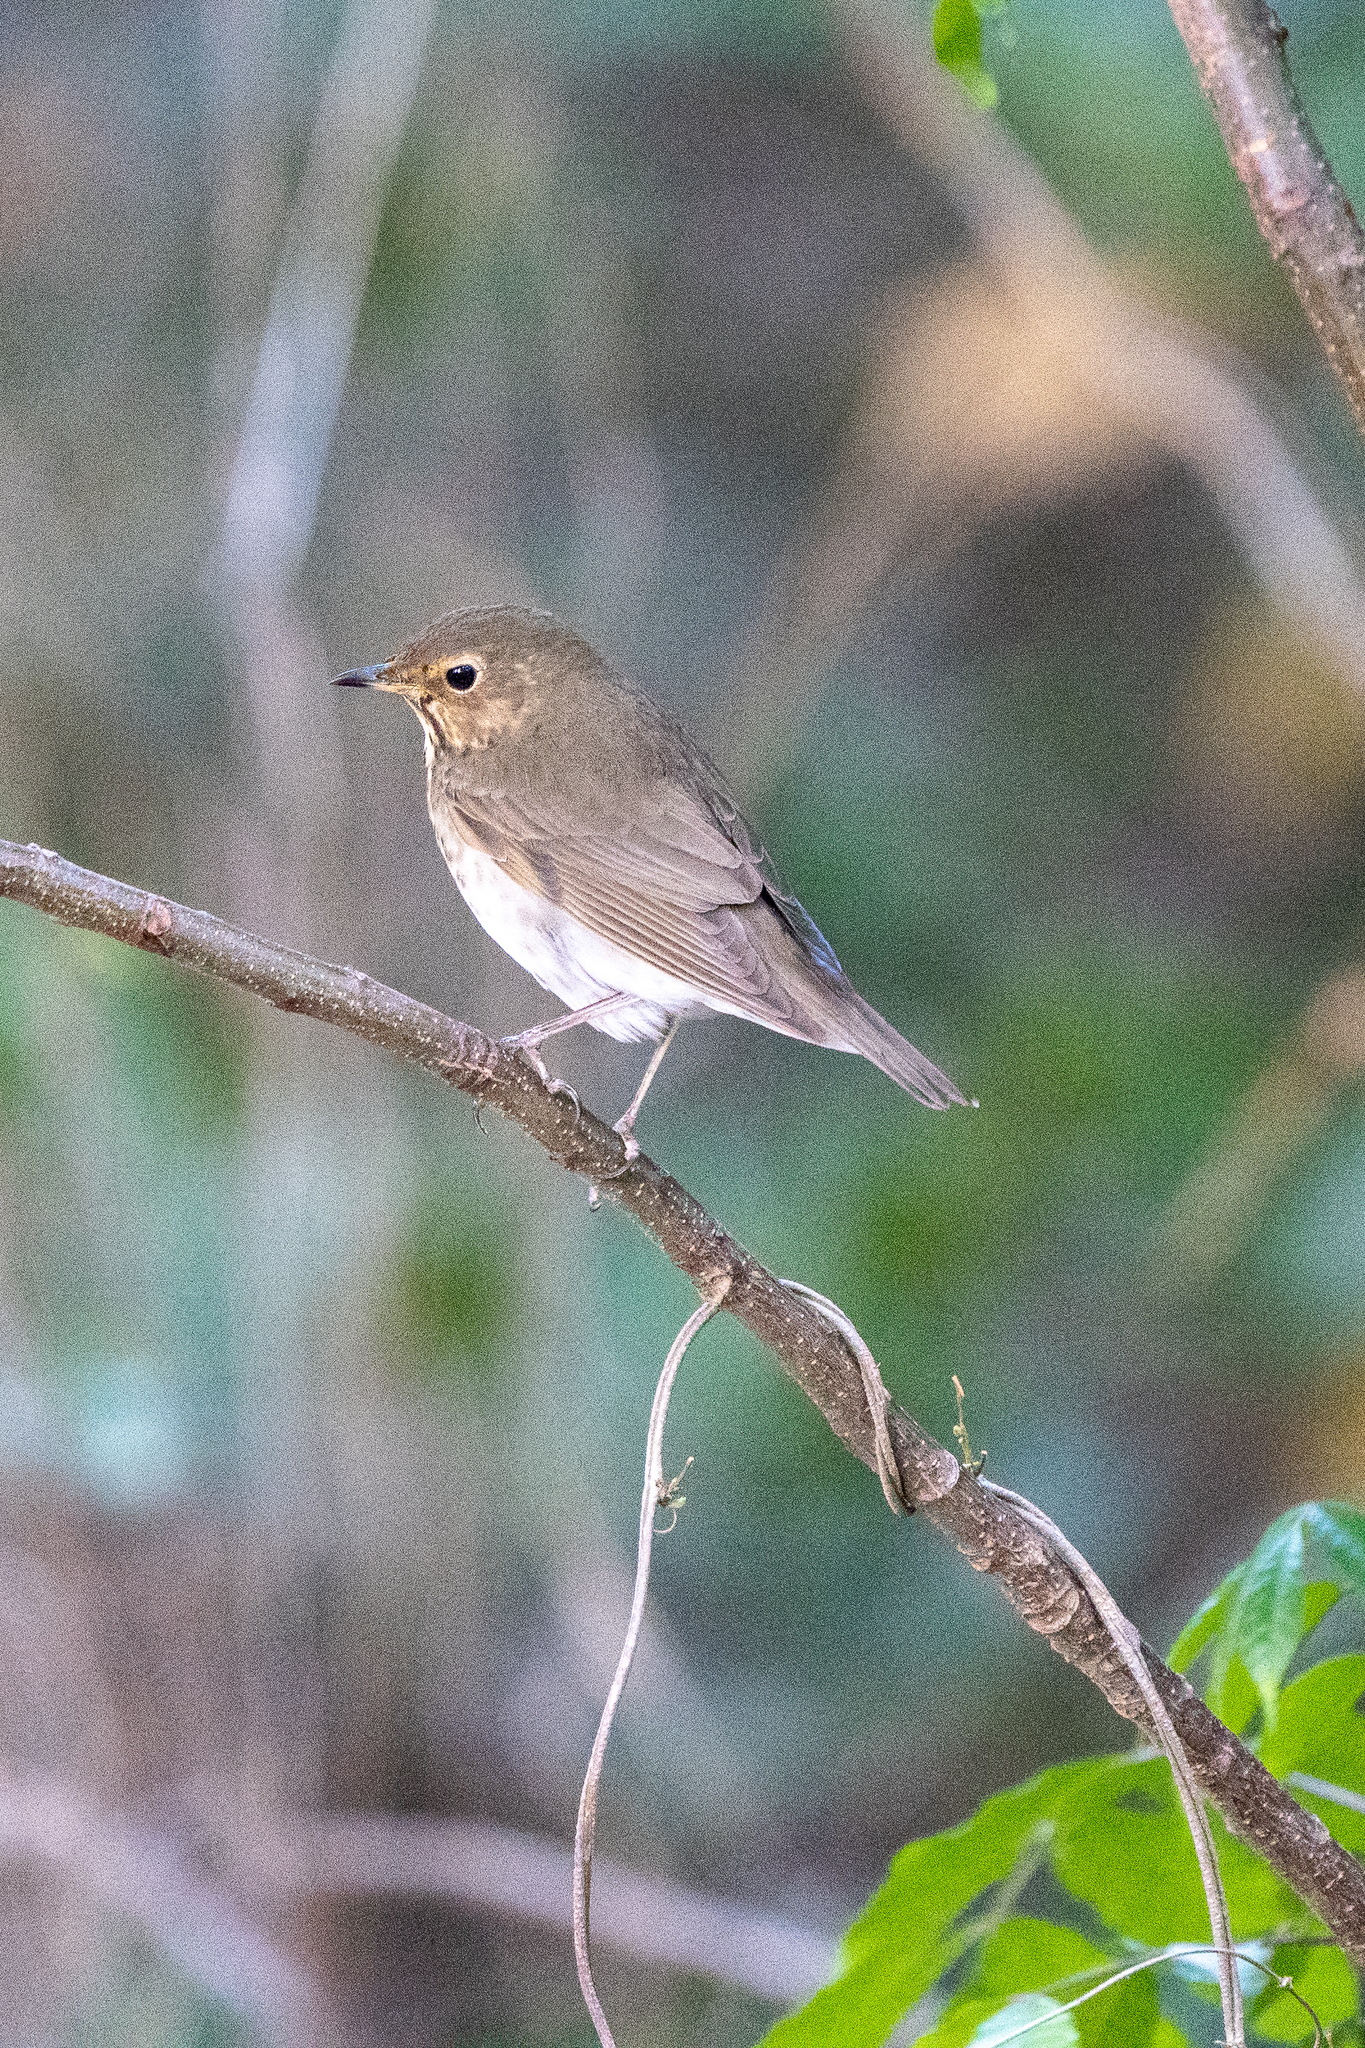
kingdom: Animalia
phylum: Chordata
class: Aves
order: Passeriformes
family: Turdidae
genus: Catharus
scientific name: Catharus ustulatus
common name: Swainson's thrush
